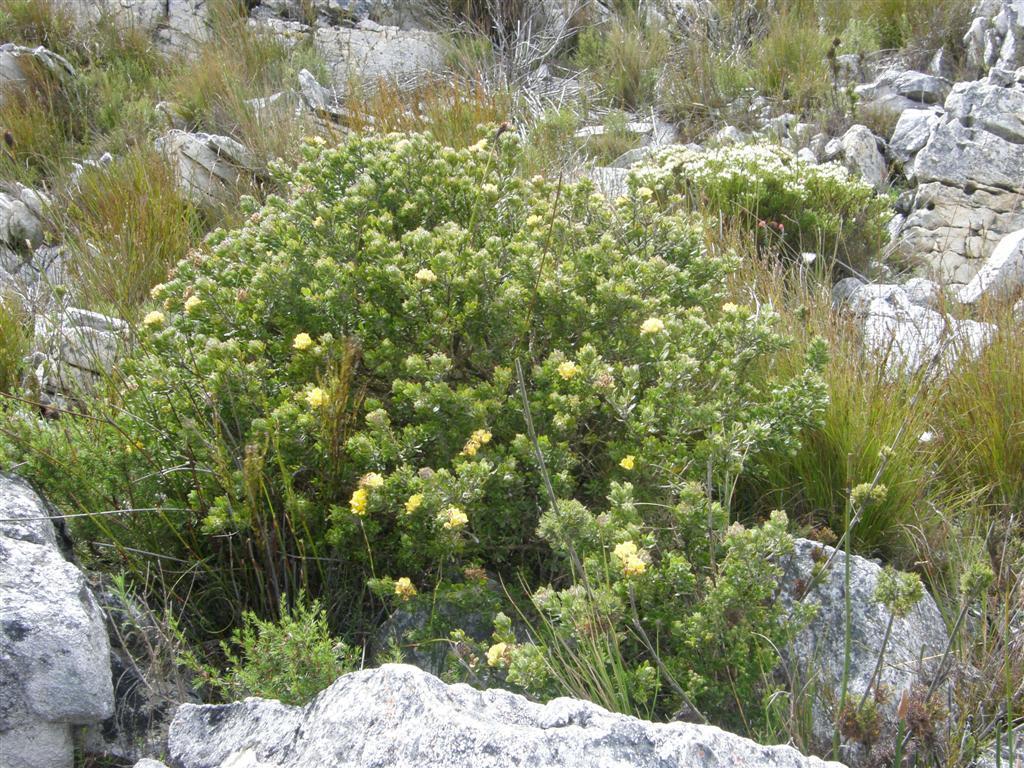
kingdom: Plantae
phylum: Tracheophyta
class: Magnoliopsida
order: Fabales
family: Fabaceae
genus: Aspalathus
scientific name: Aspalathus securifolia
